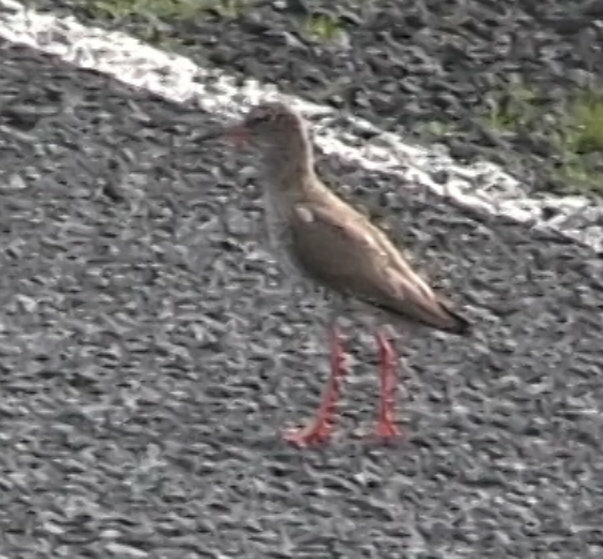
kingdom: Animalia
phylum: Chordata
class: Aves
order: Charadriiformes
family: Scolopacidae
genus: Tringa
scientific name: Tringa totanus
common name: Common redshank
